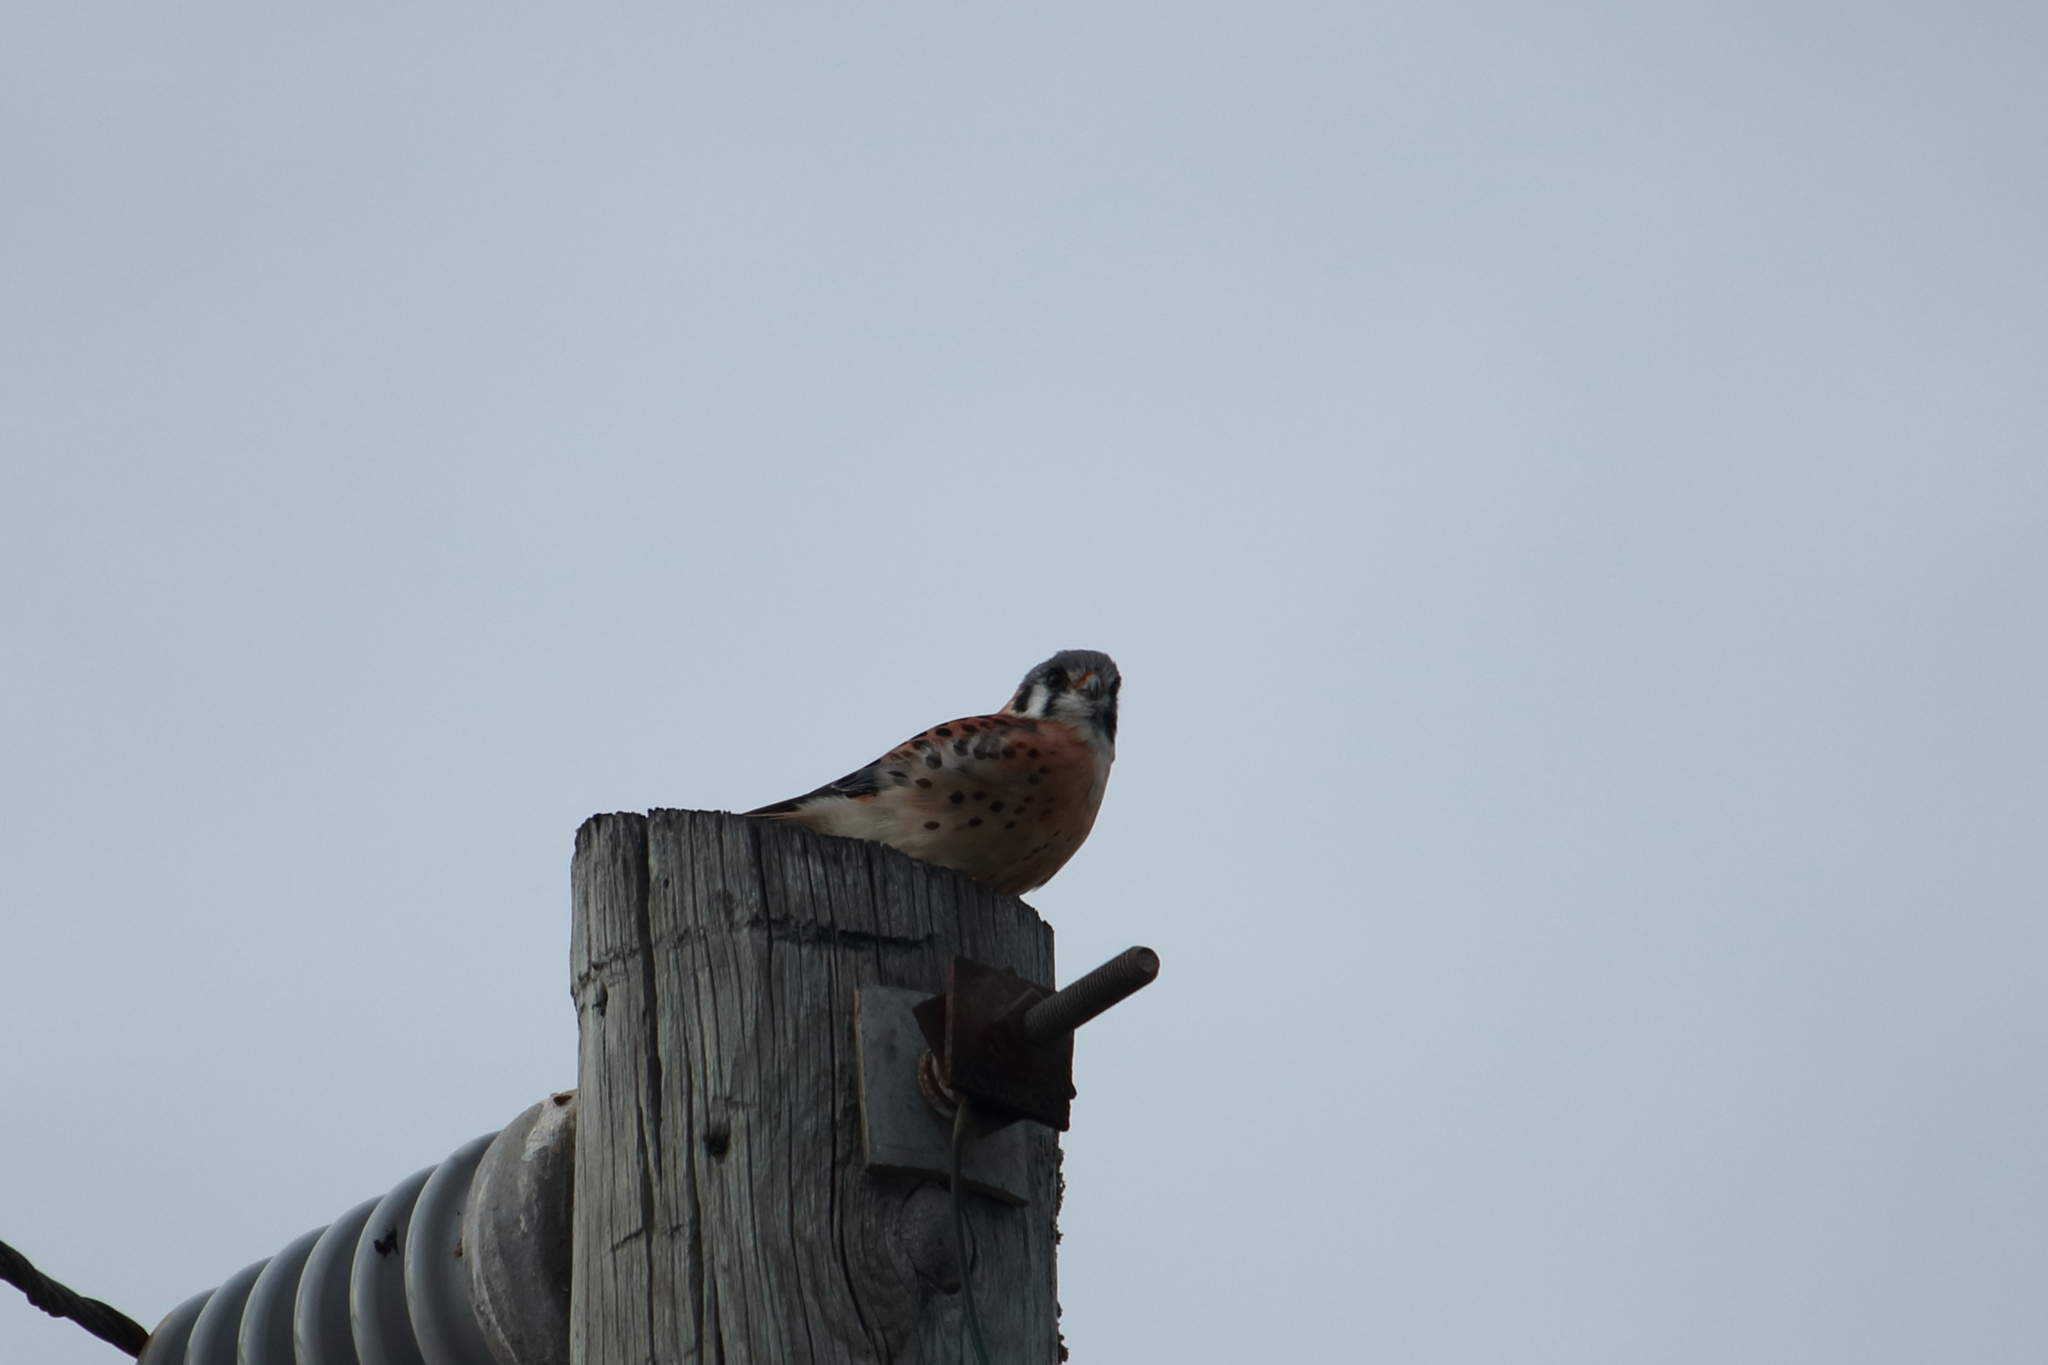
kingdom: Animalia
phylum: Chordata
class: Aves
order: Falconiformes
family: Falconidae
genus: Falco
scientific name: Falco sparverius
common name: American kestrel
